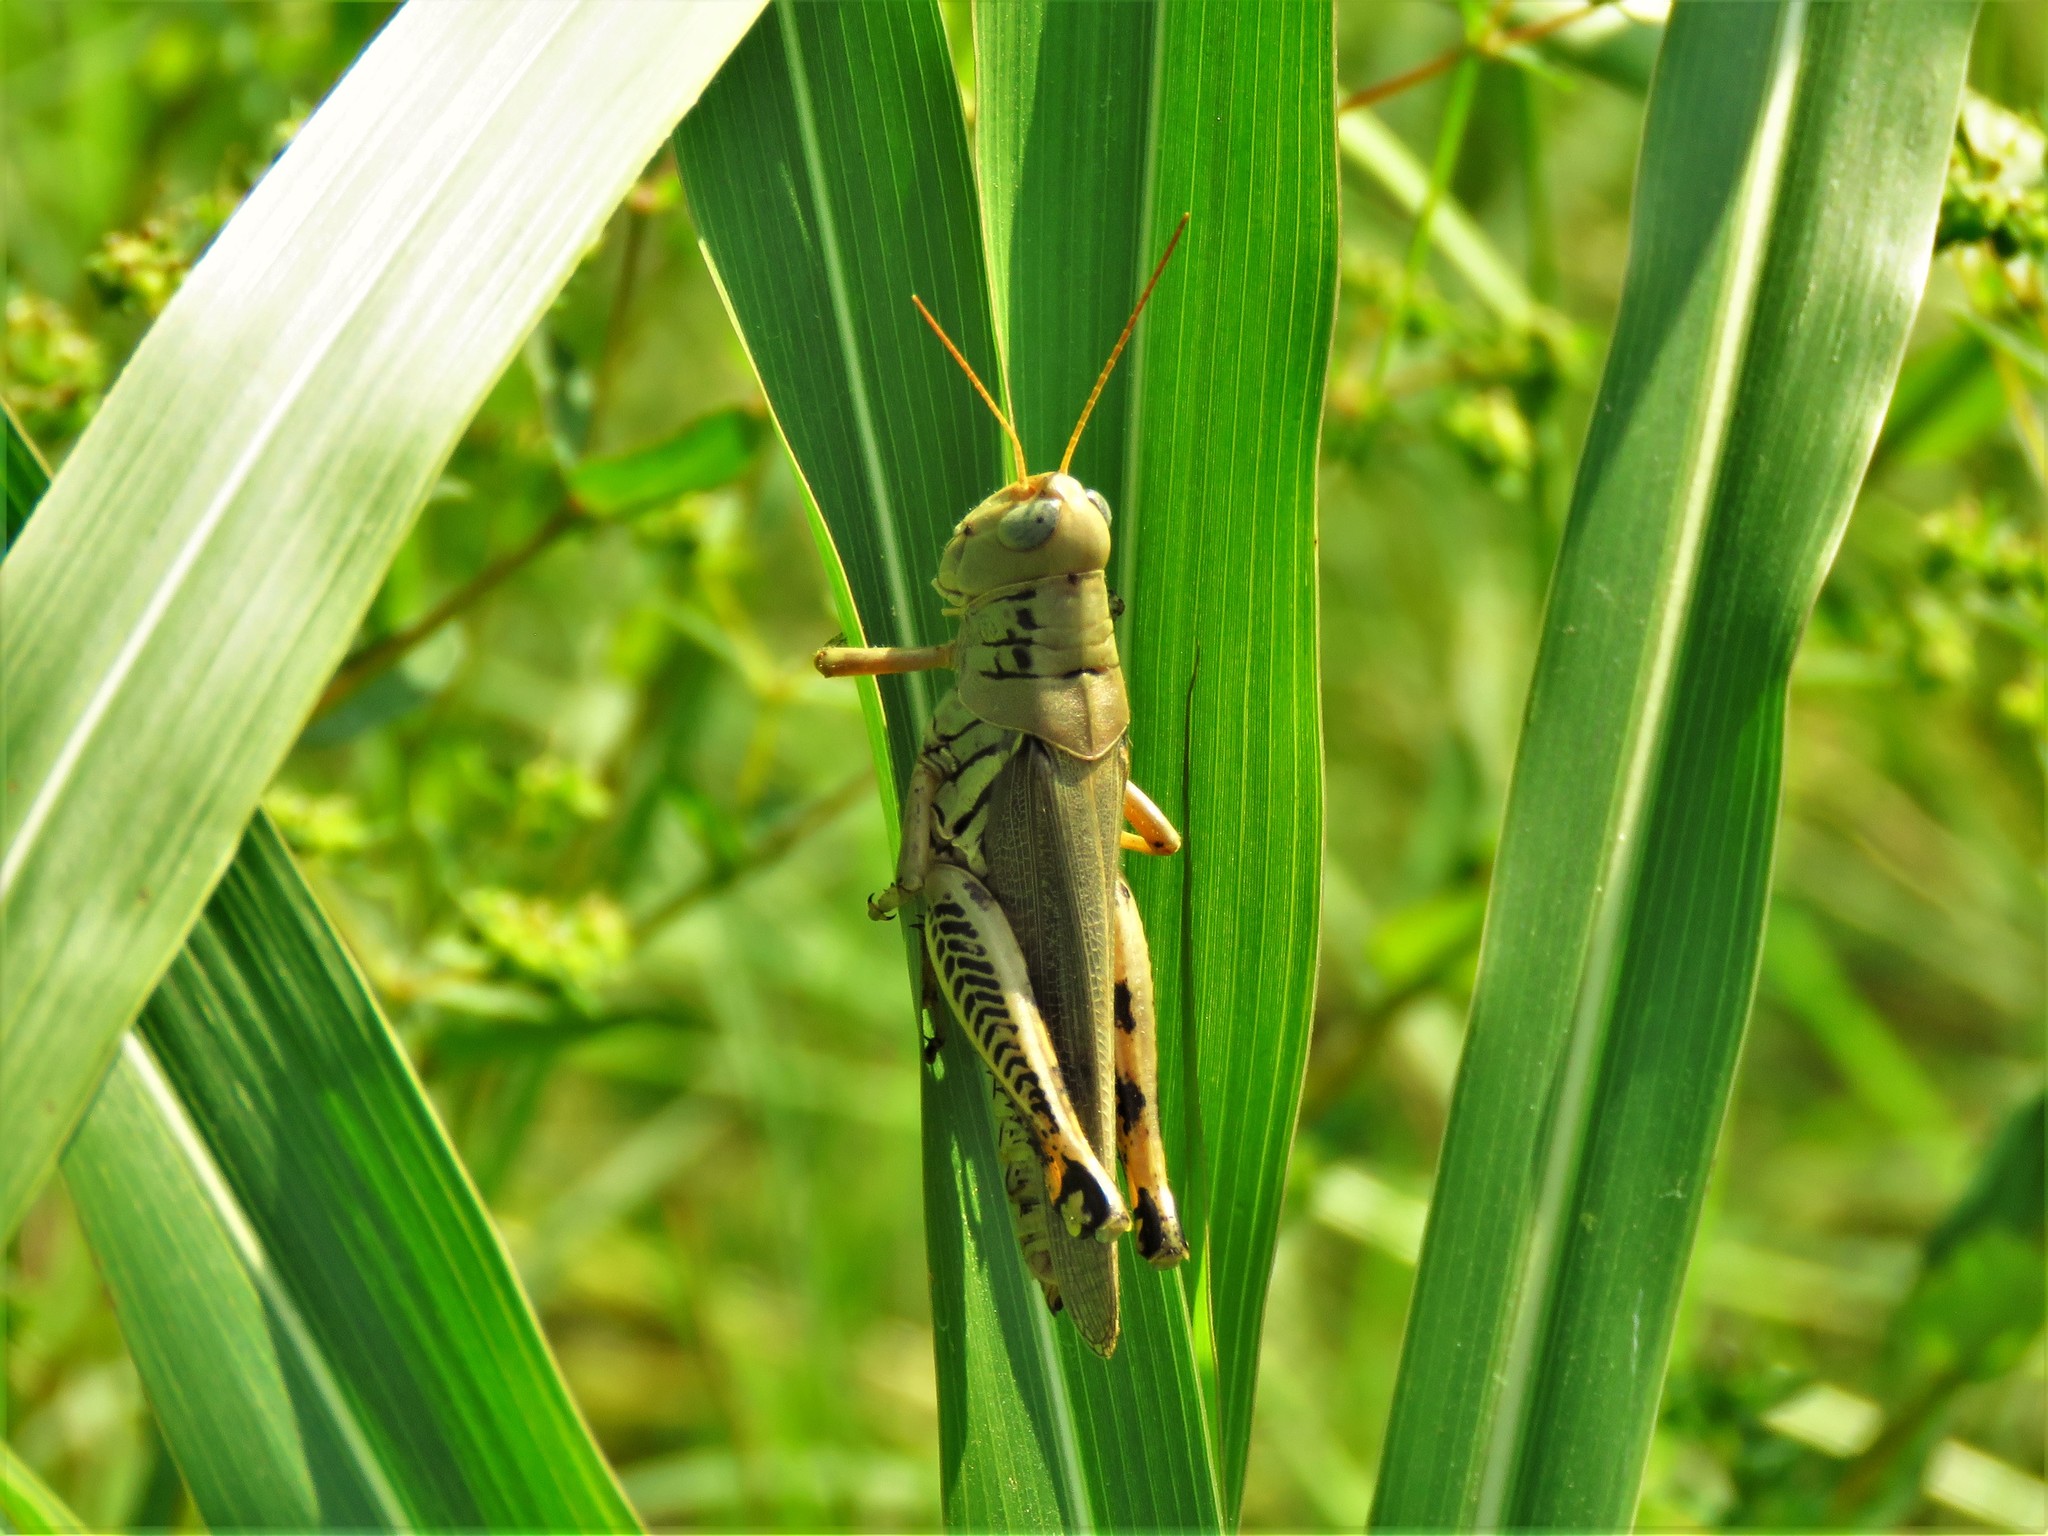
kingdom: Animalia
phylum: Arthropoda
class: Insecta
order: Orthoptera
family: Acrididae
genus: Melanoplus
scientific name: Melanoplus differentialis
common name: Differential grasshopper
